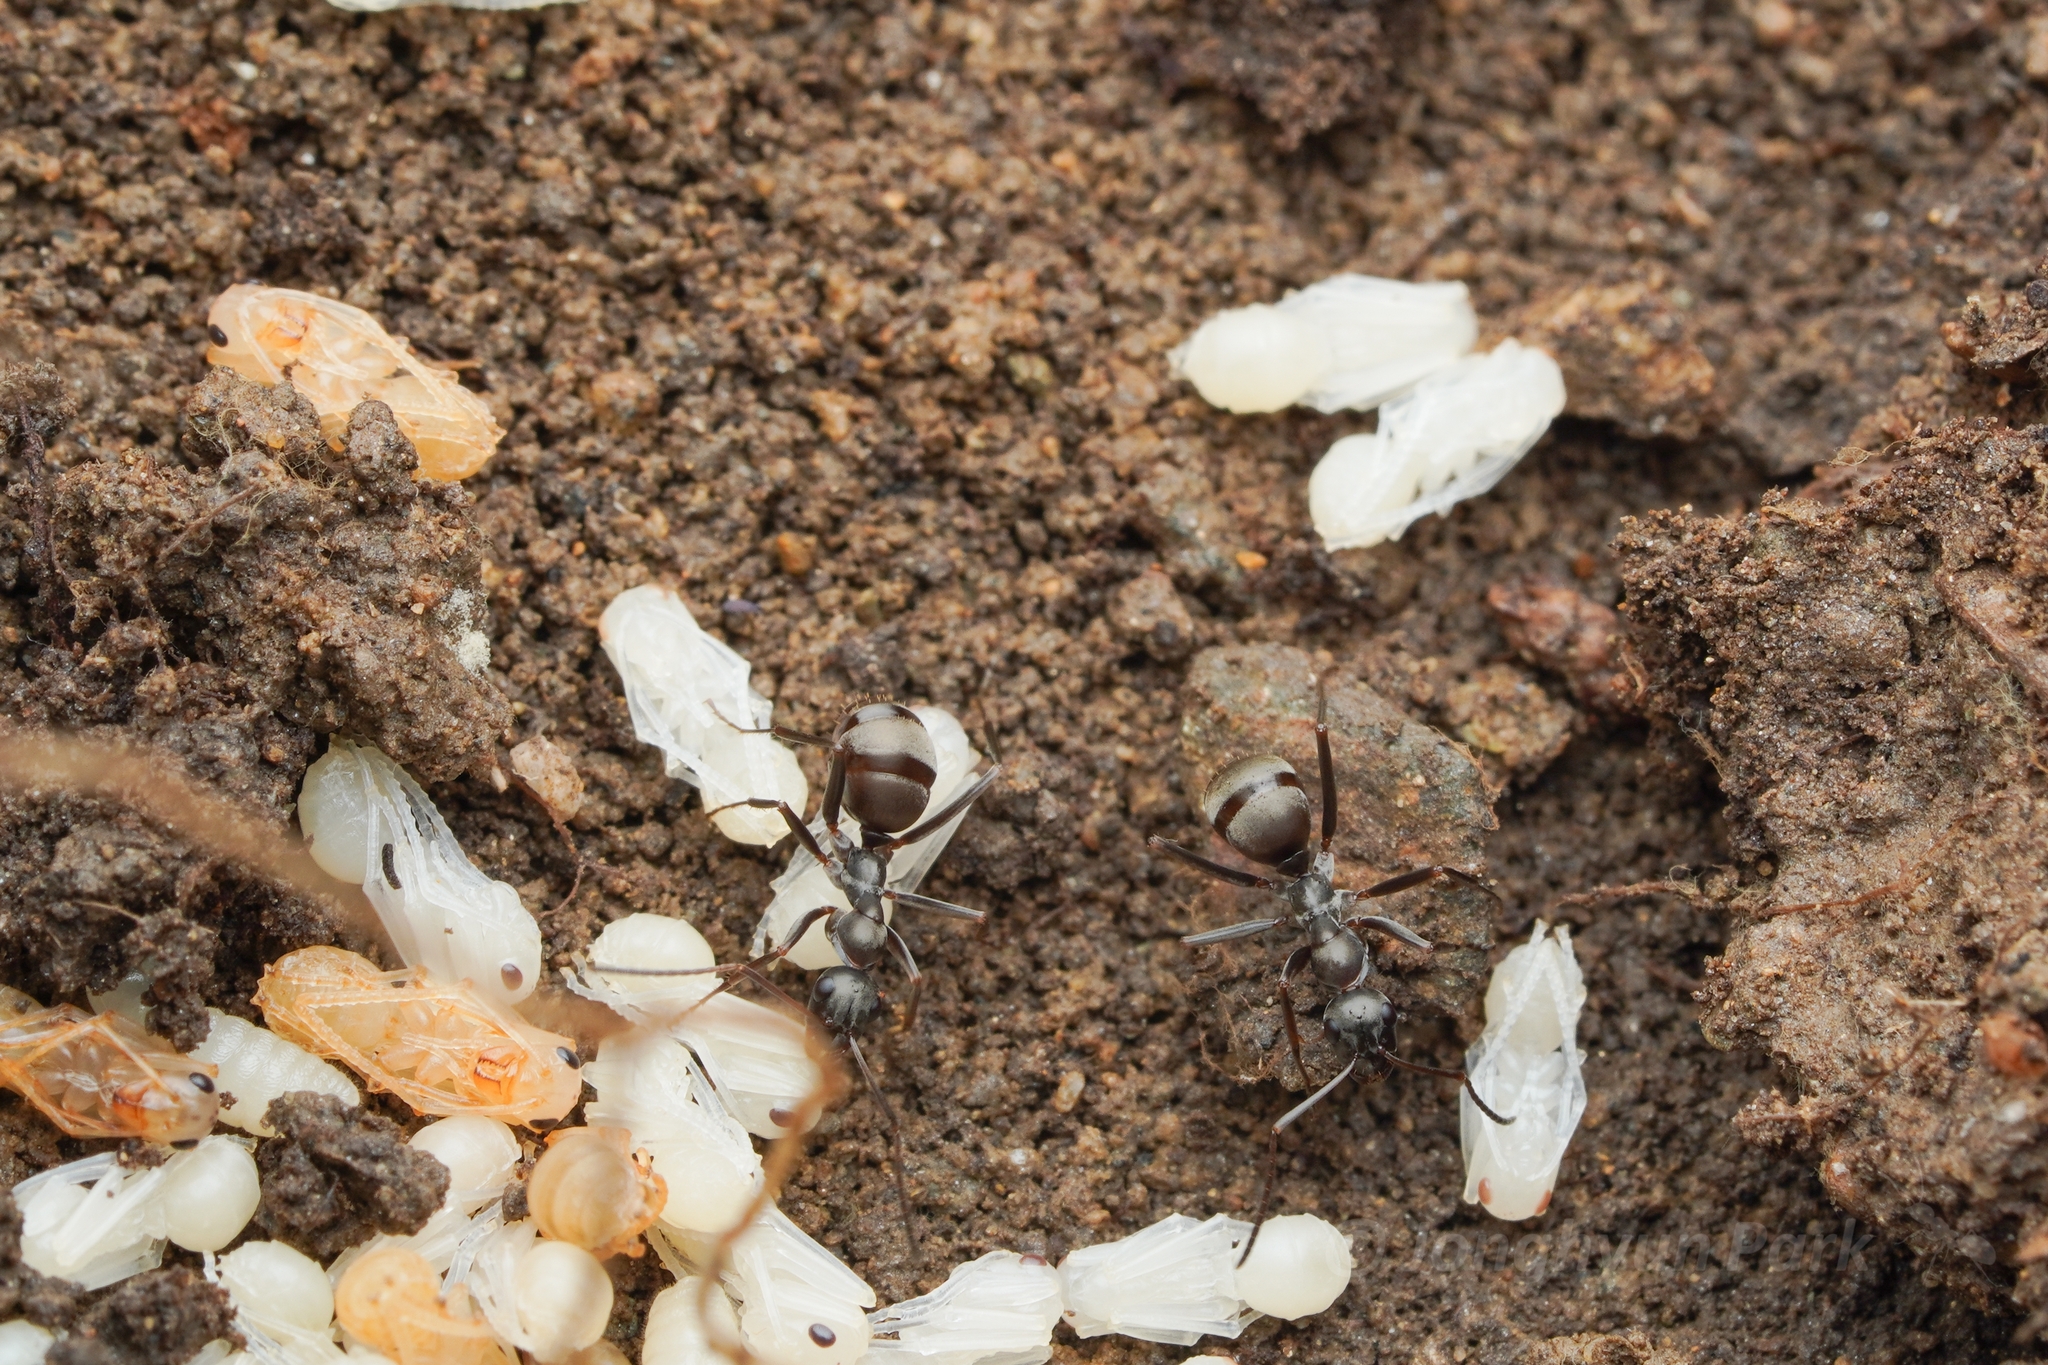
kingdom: Animalia
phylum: Arthropoda
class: Insecta
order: Hymenoptera
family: Formicidae
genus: Formica
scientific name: Formica hayashi
